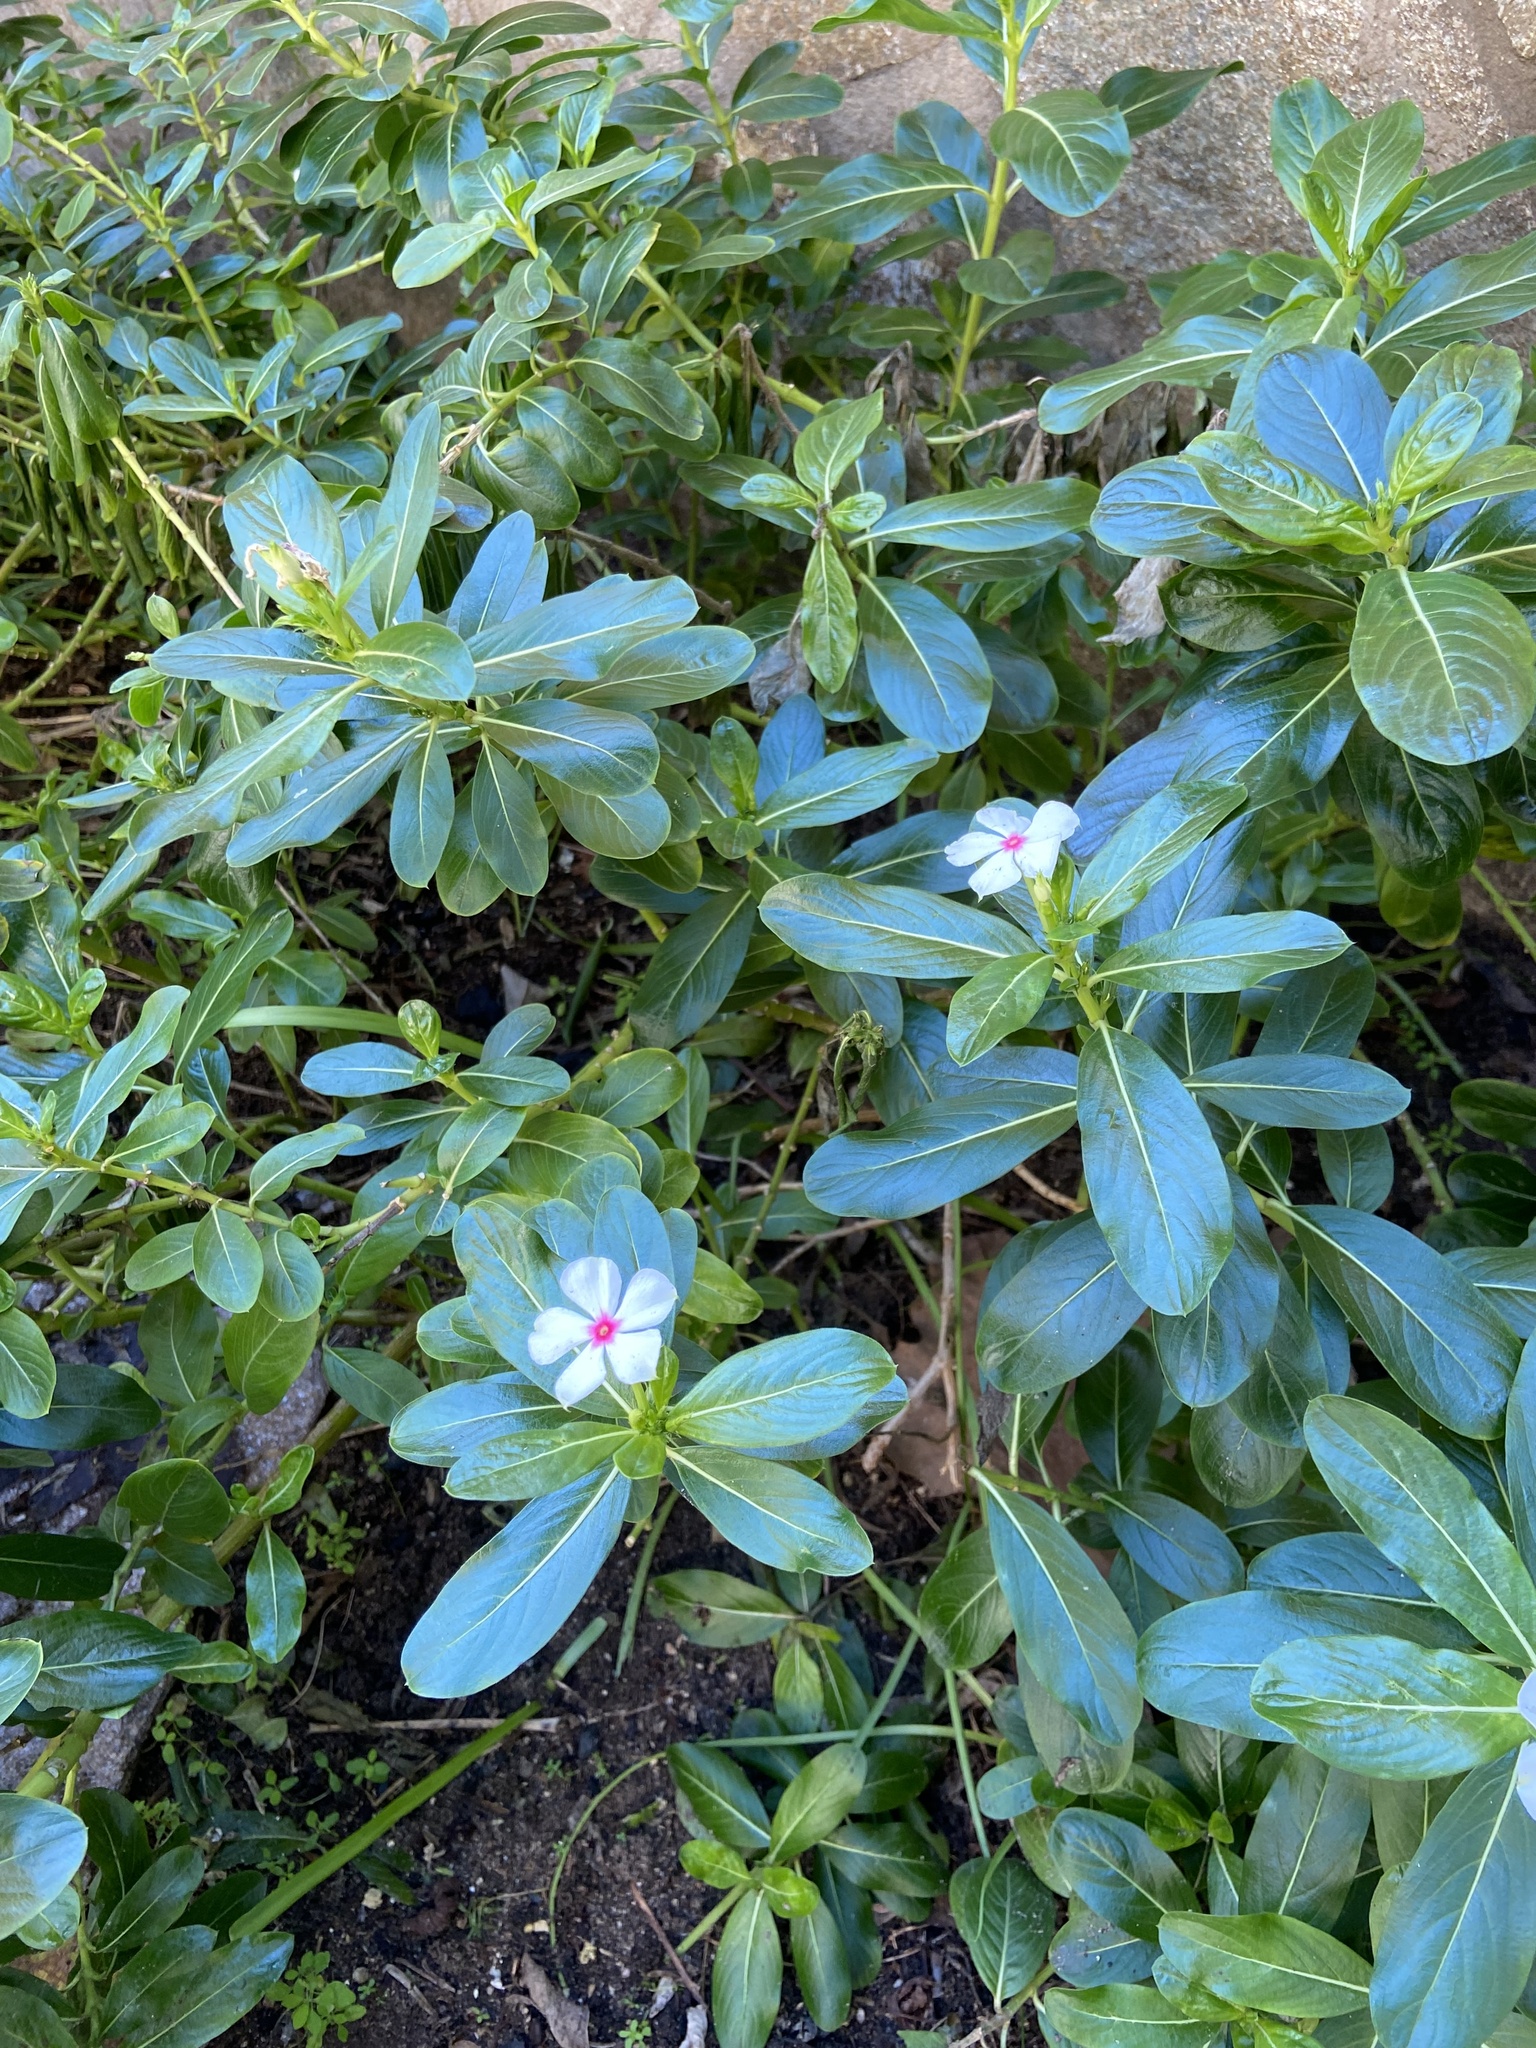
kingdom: Plantae
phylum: Tracheophyta
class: Magnoliopsida
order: Gentianales
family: Apocynaceae
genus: Catharanthus
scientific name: Catharanthus roseus
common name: Madagascar periwinkle
